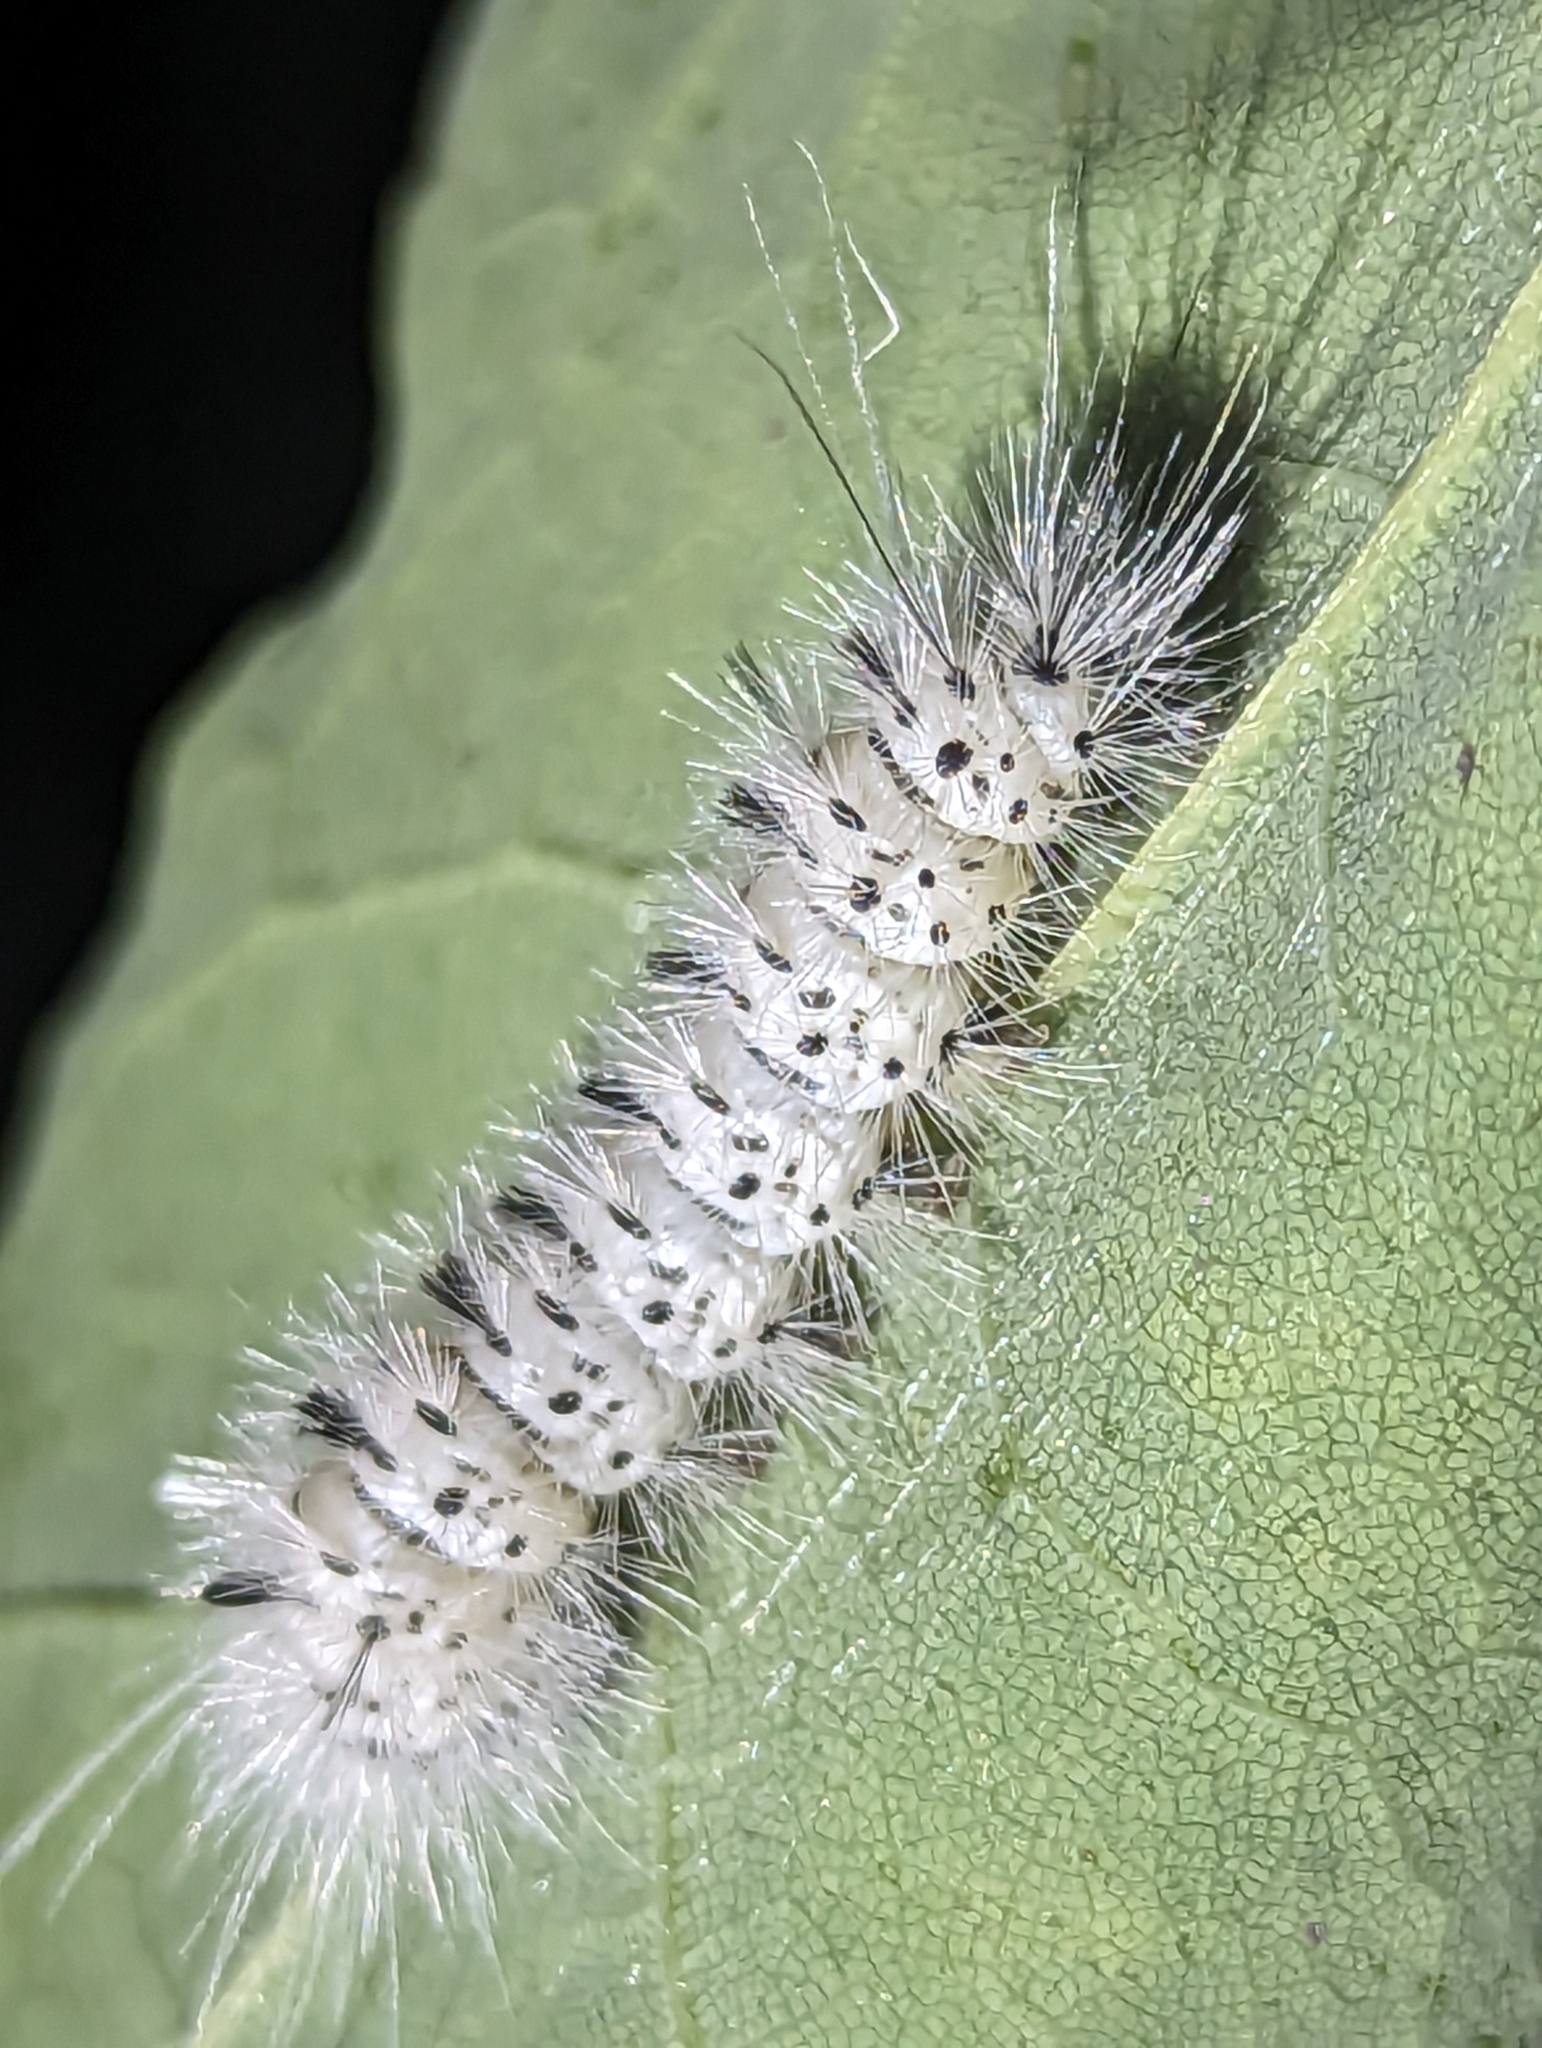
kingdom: Animalia
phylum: Arthropoda
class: Insecta
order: Lepidoptera
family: Erebidae
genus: Lophocampa
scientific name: Lophocampa caryae
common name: Hickory tussock moth
